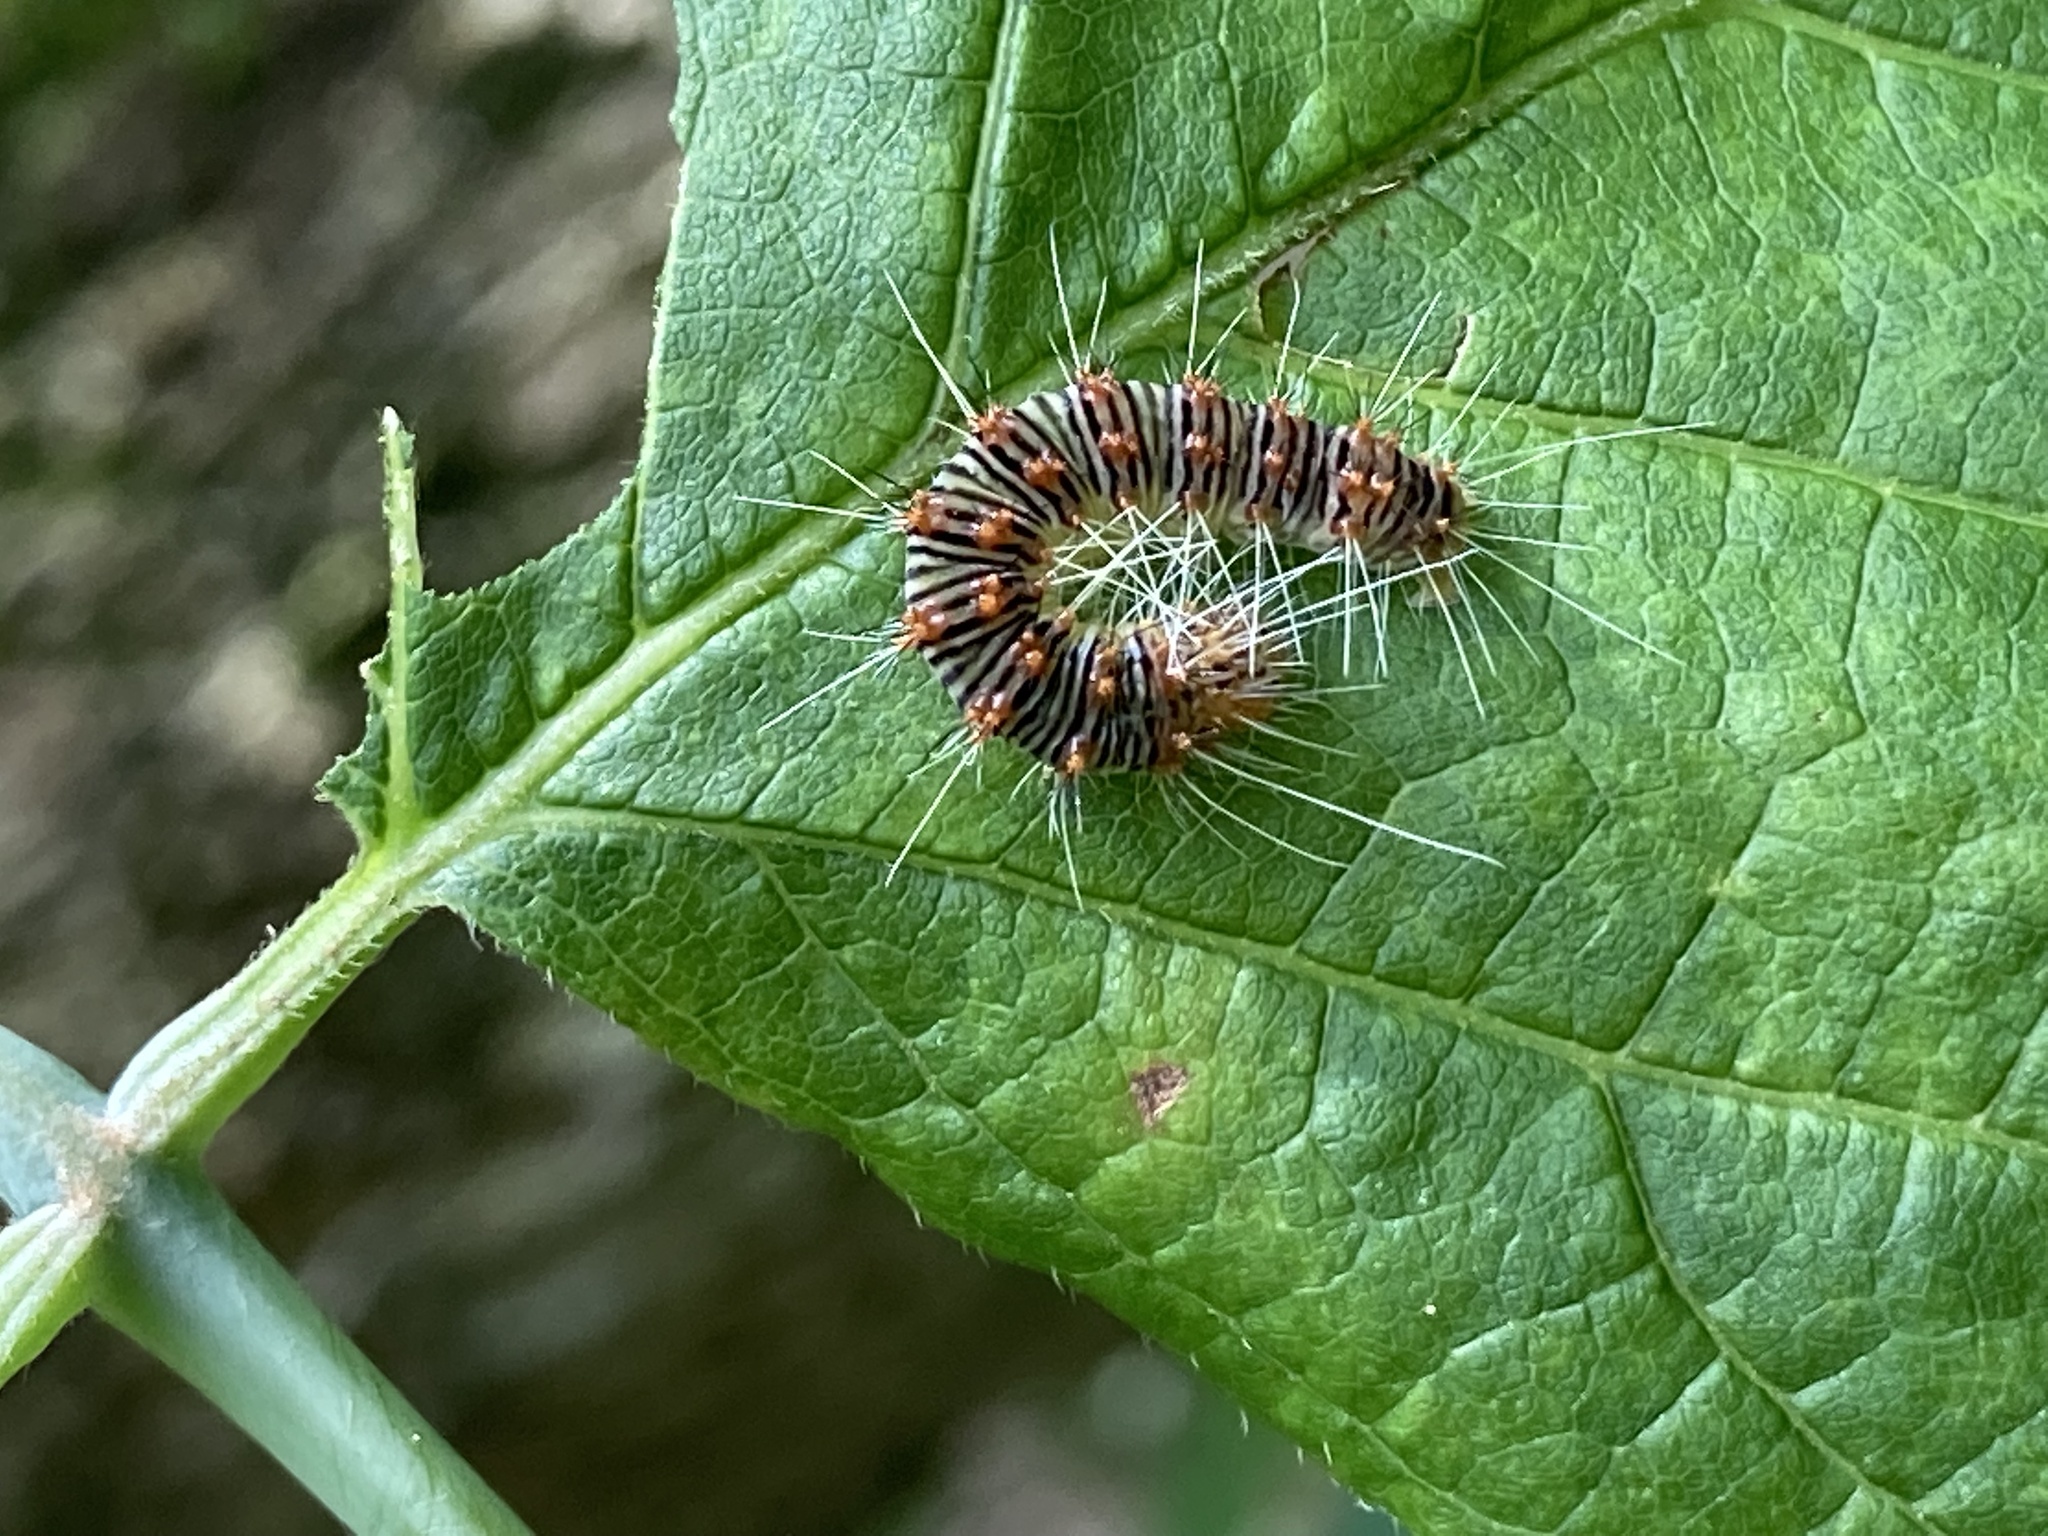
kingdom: Animalia
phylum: Arthropoda
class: Insecta
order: Lepidoptera
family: Noctuidae
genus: Acronicta
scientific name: Acronicta retardata
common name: Maple dagger
